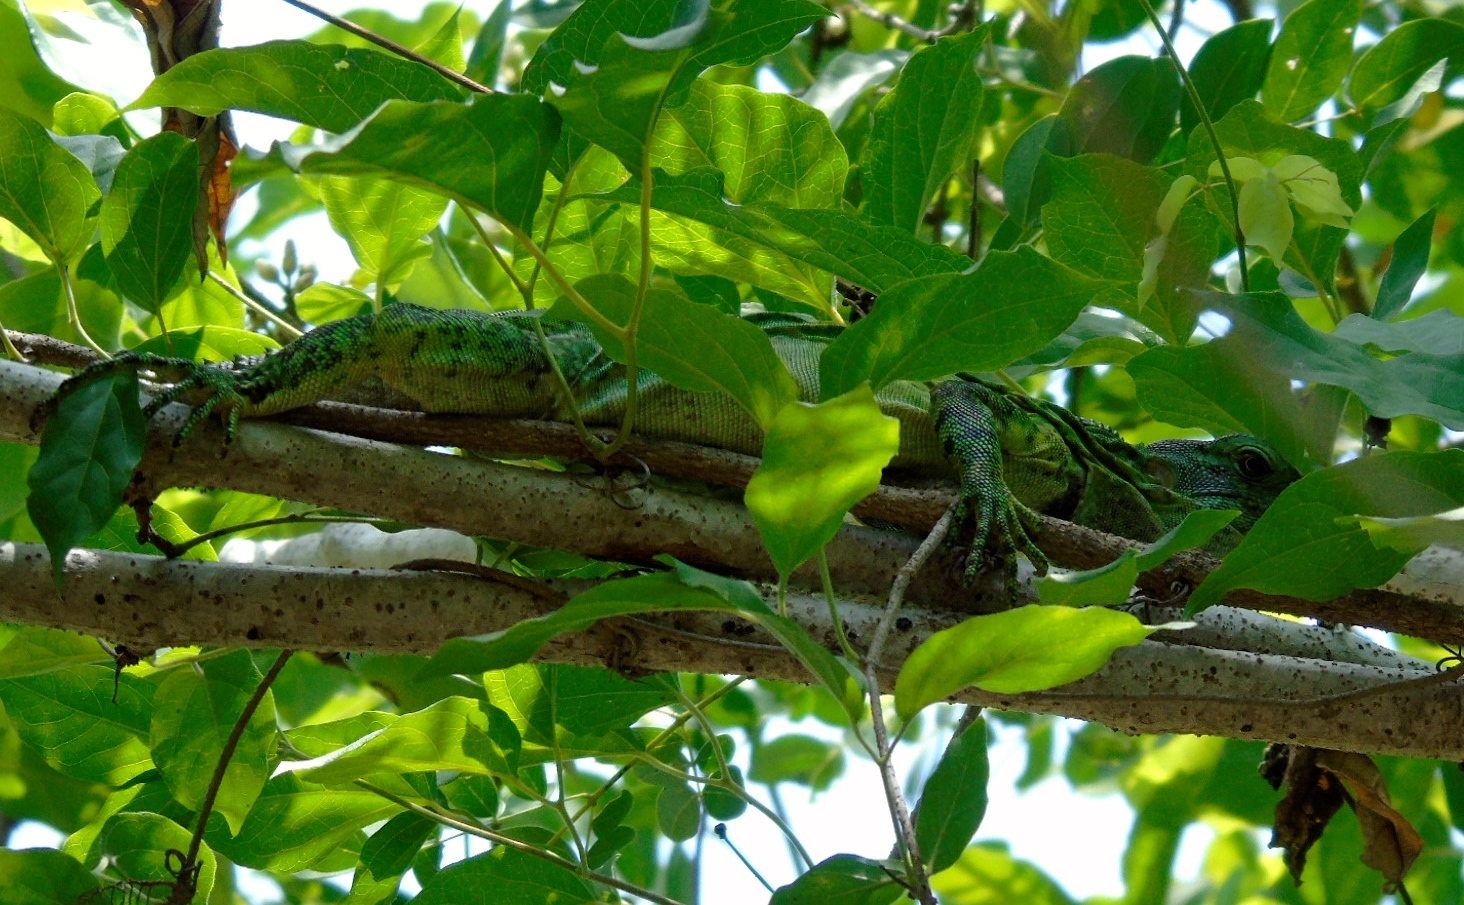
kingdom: Animalia
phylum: Chordata
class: Squamata
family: Iguanidae
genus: Iguana
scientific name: Iguana iguana
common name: Green iguana
